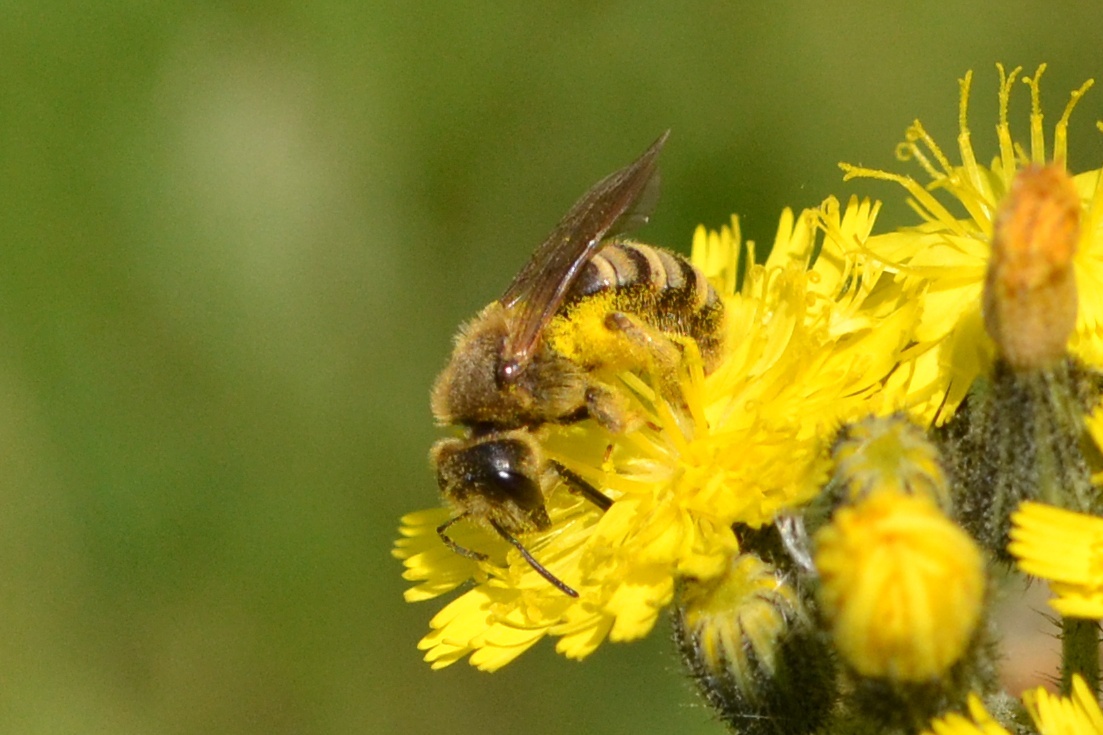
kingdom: Animalia
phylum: Arthropoda
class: Insecta
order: Hymenoptera
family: Halictidae
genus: Halictus
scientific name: Halictus scabiosae
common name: Great banded furrow bee
